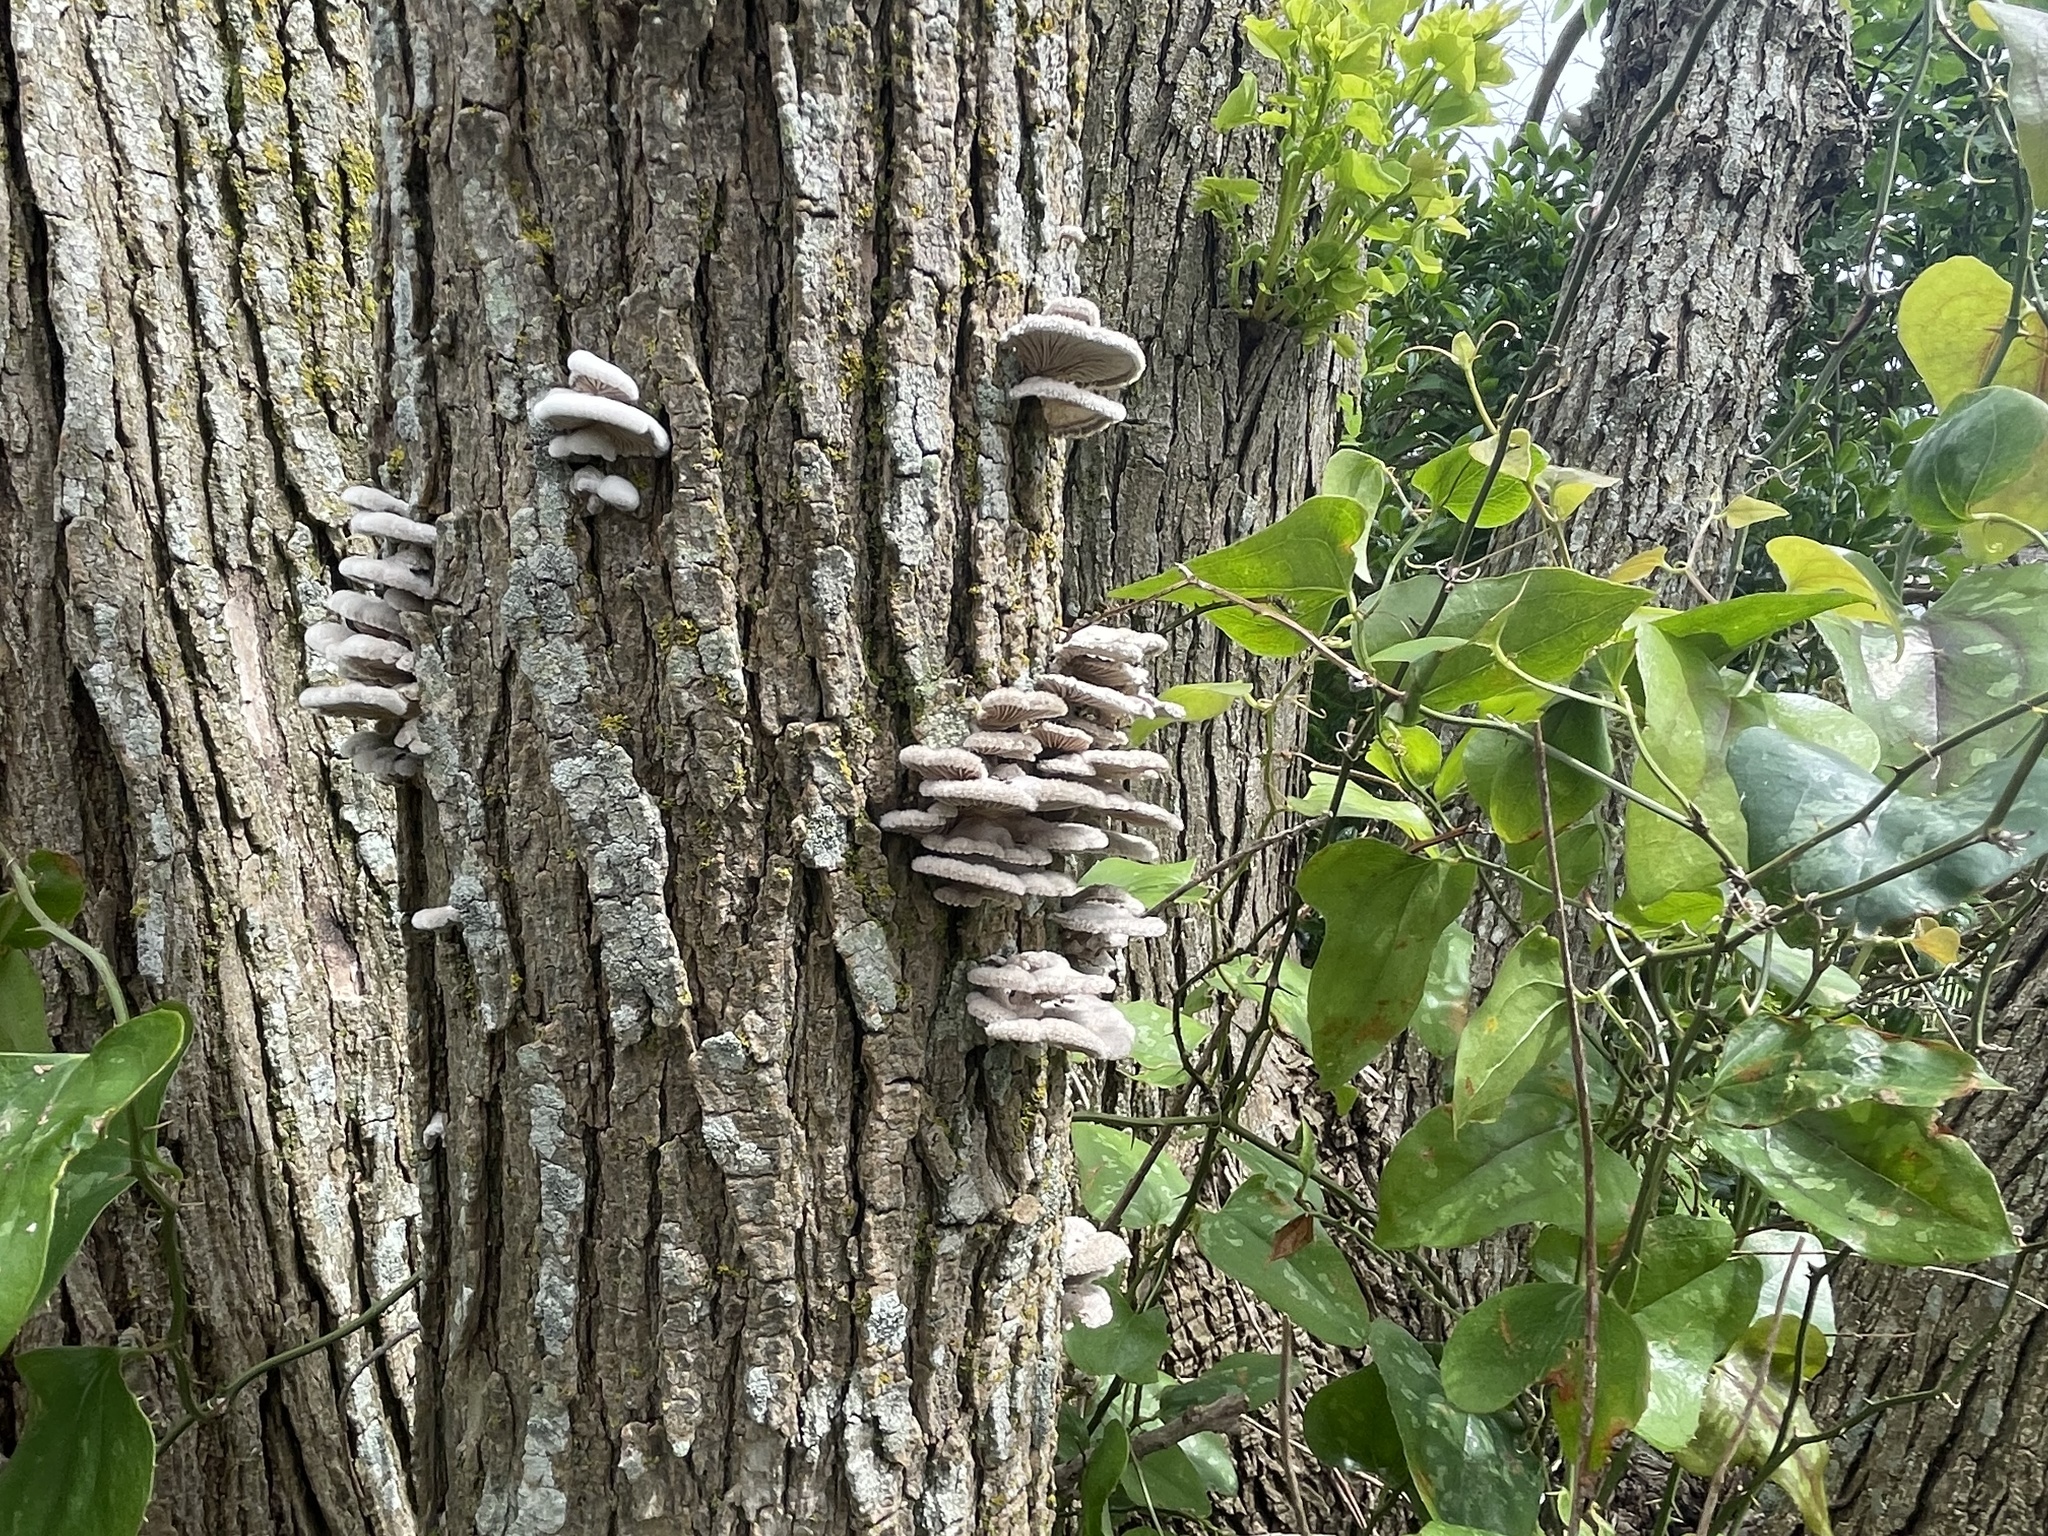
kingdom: Fungi
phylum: Basidiomycota
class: Agaricomycetes
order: Agaricales
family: Schizophyllaceae
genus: Schizophyllum
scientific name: Schizophyllum commune
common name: Common porecrust
